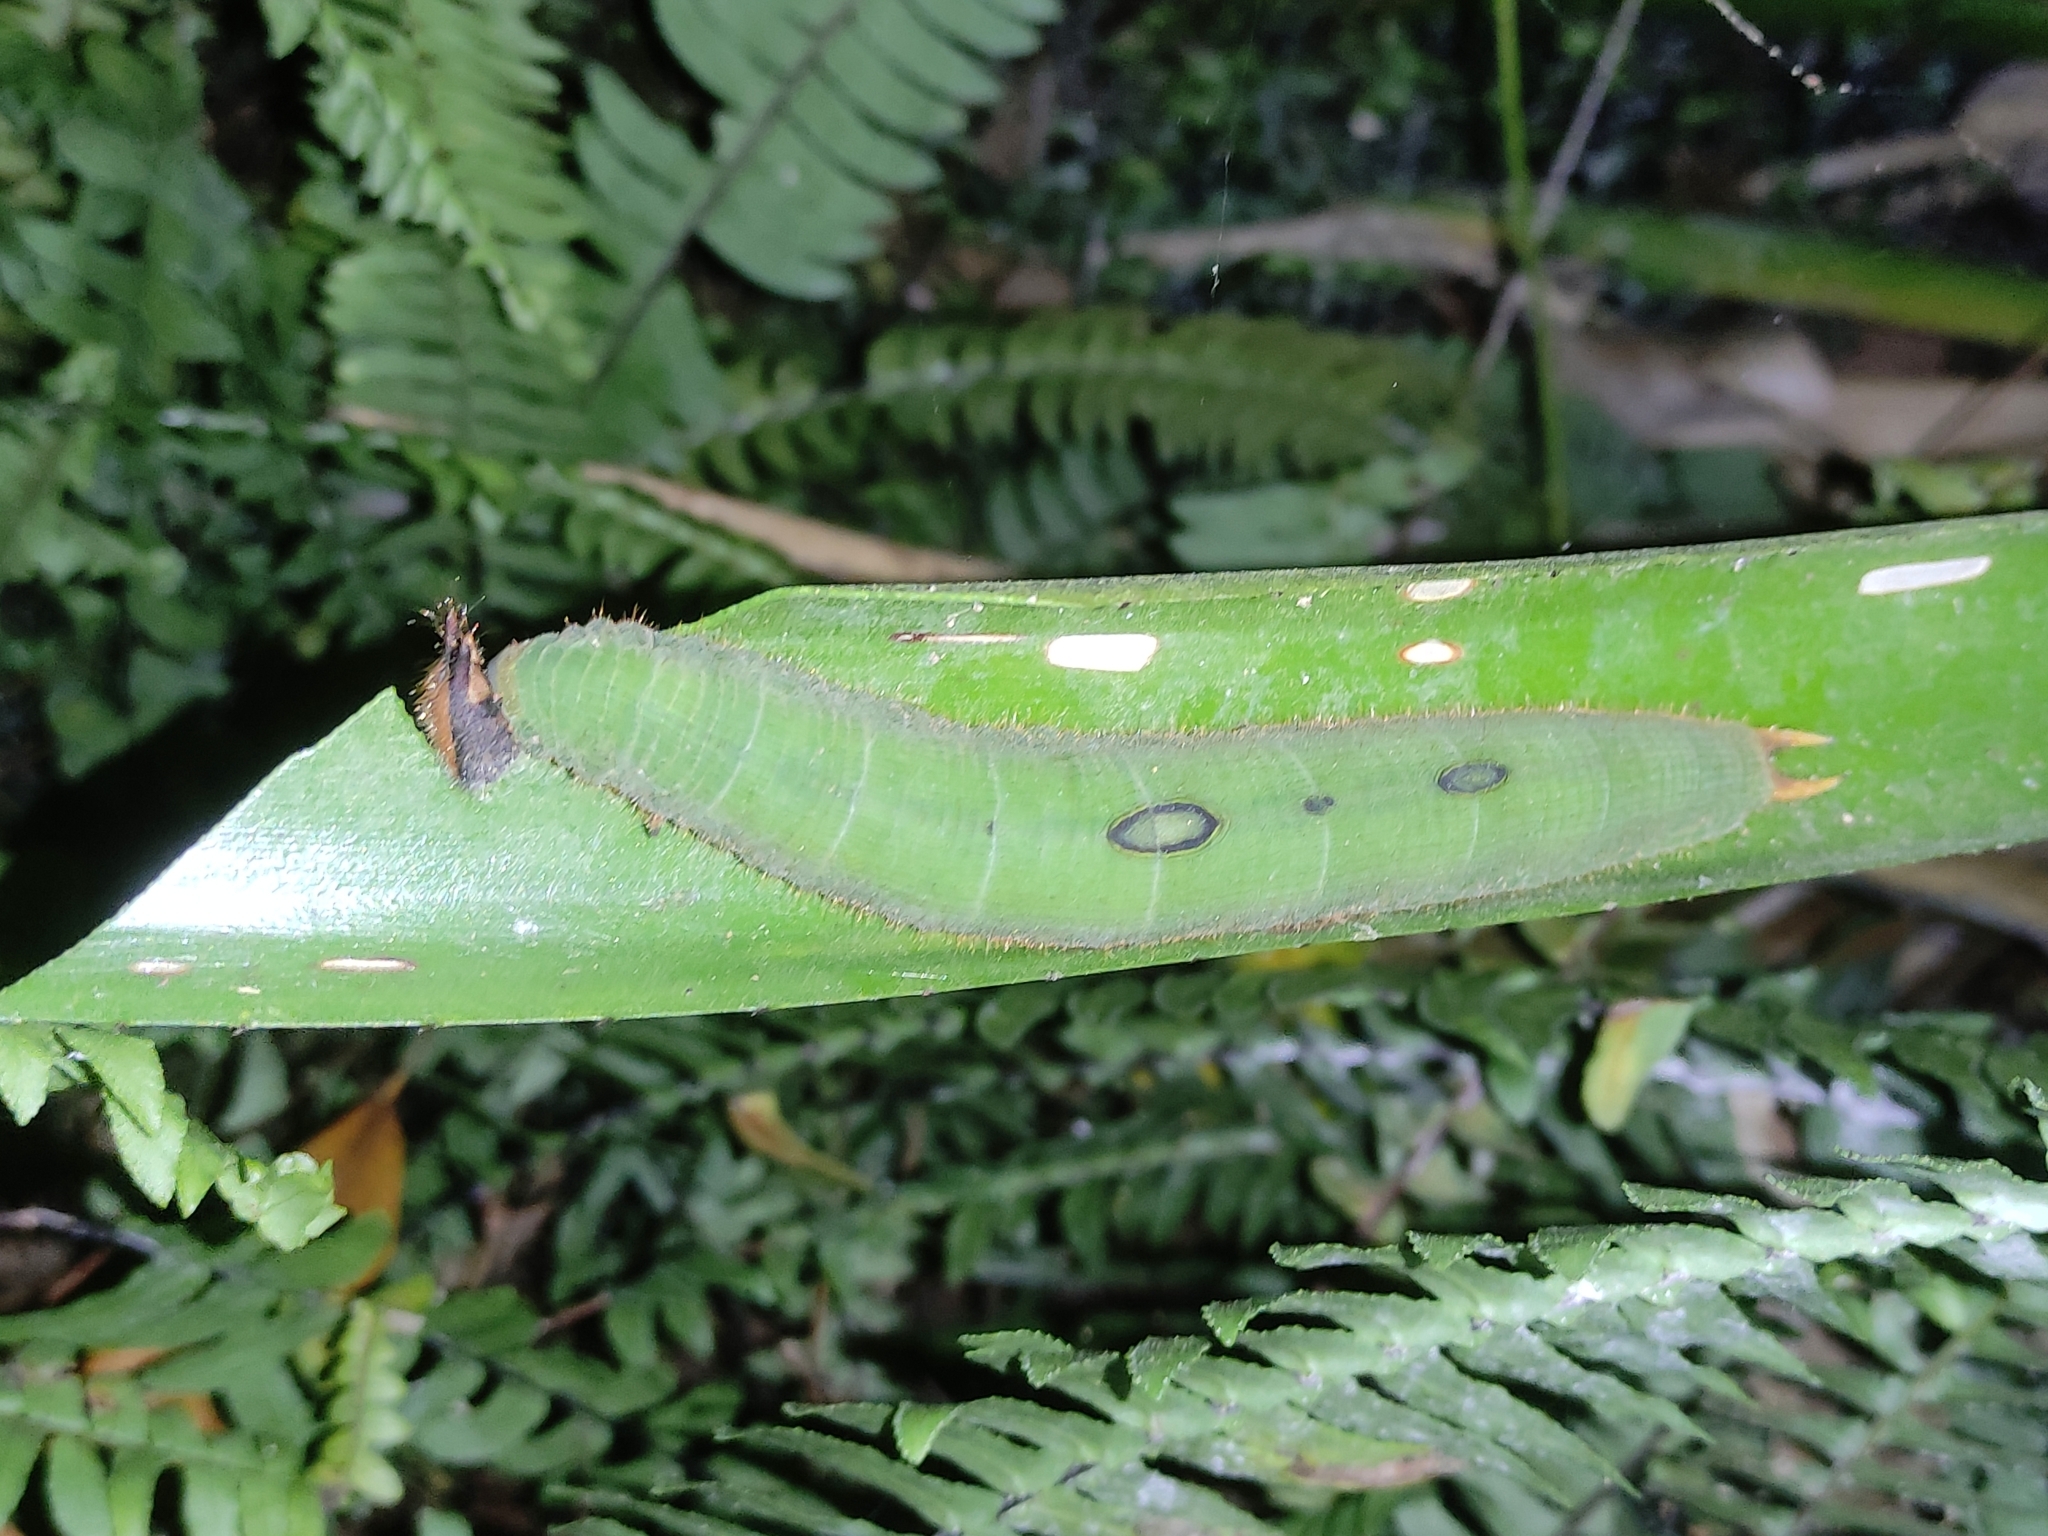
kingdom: Animalia
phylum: Arthropoda
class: Insecta
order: Lepidoptera
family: Nymphalidae
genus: Dynastor
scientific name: Dynastor darius
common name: Daring owl-butterfly
